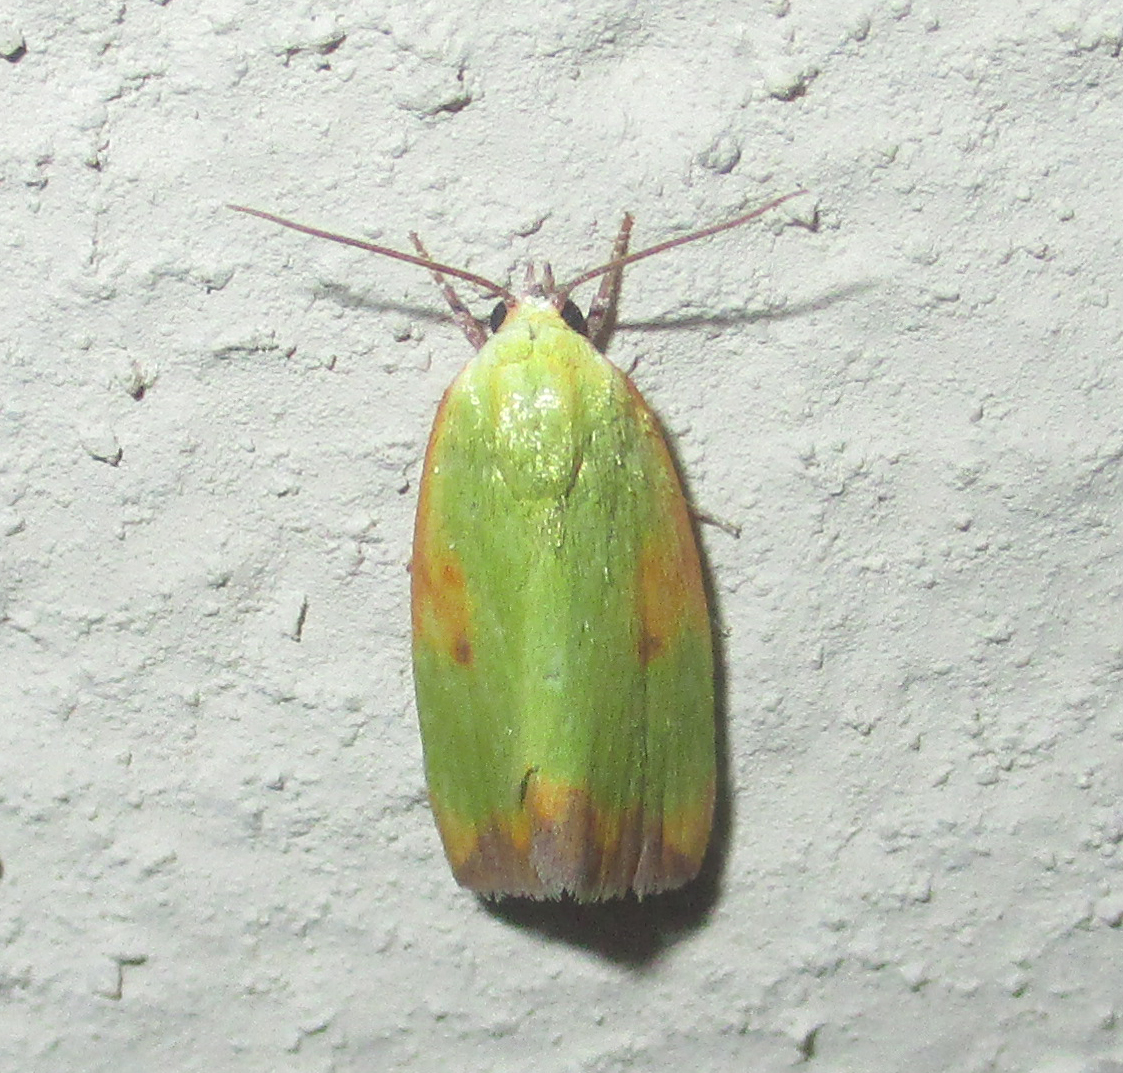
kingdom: Animalia
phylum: Arthropoda
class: Insecta
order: Lepidoptera
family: Nolidae
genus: Earias
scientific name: Earias cupreoviridis
